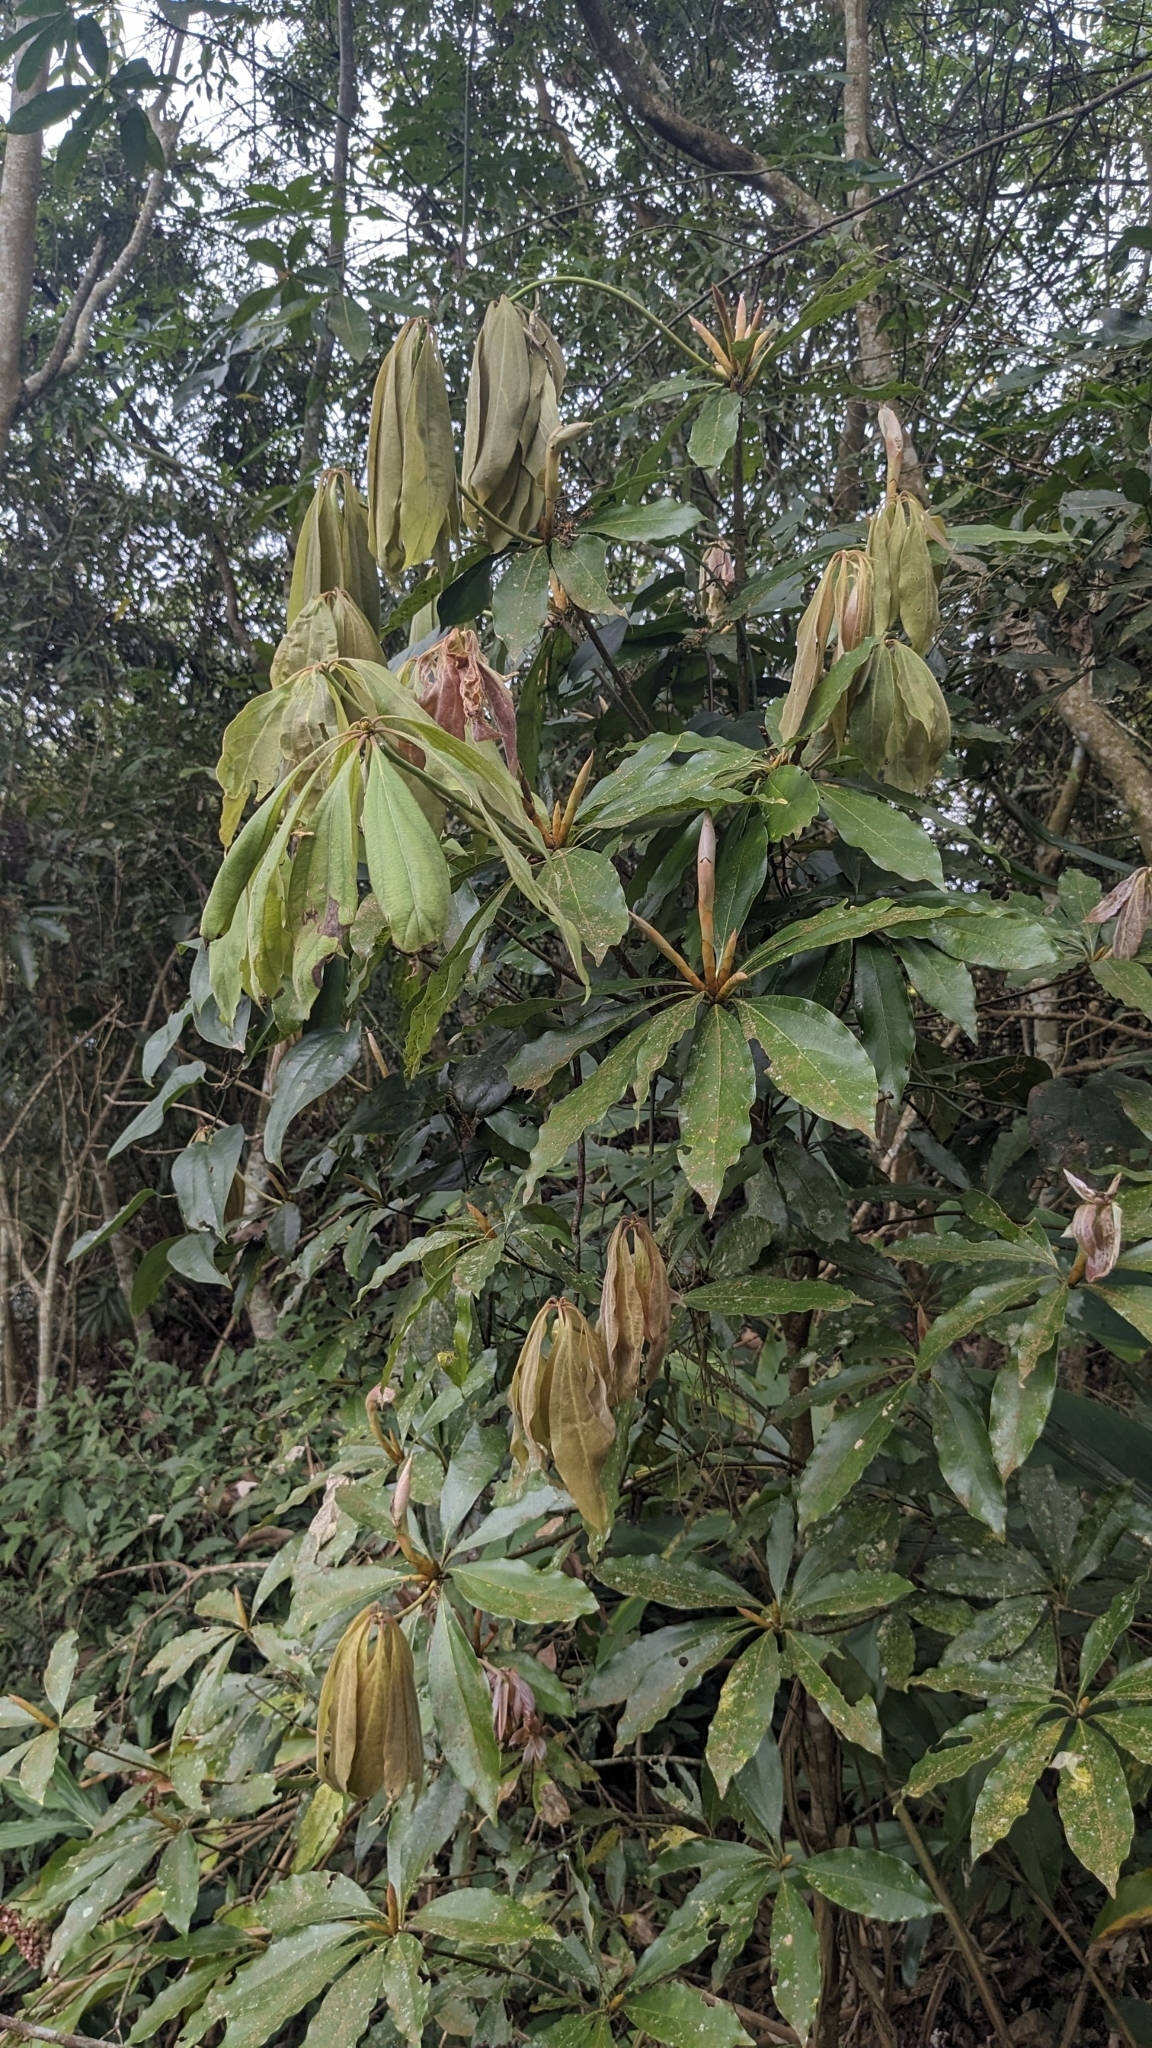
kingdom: Plantae
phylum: Tracheophyta
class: Magnoliopsida
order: Laurales
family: Lauraceae
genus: Neolitsea
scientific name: Neolitsea konishii
